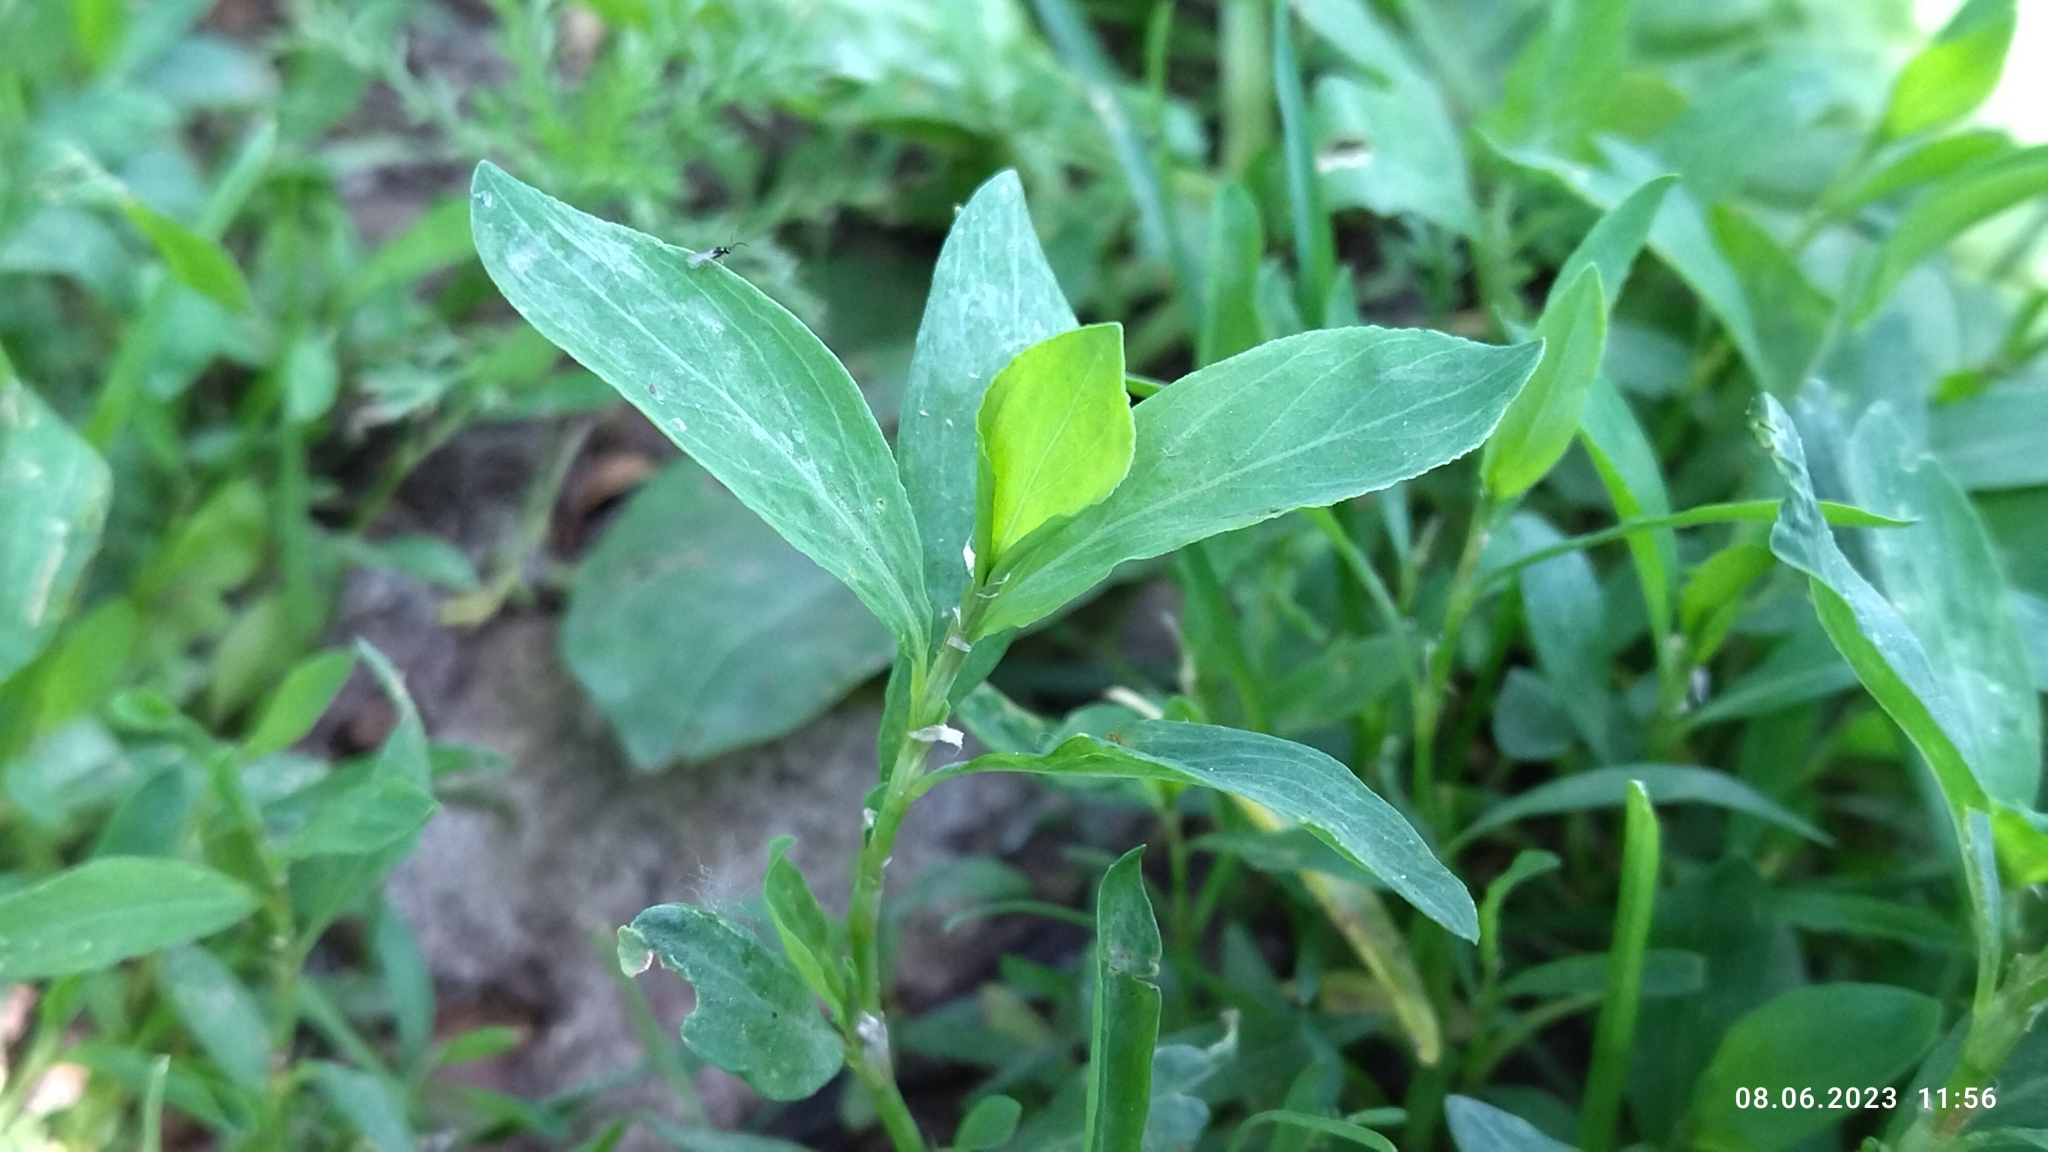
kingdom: Plantae
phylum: Tracheophyta
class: Magnoliopsida
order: Caryophyllales
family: Polygonaceae
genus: Polygonum
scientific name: Polygonum
